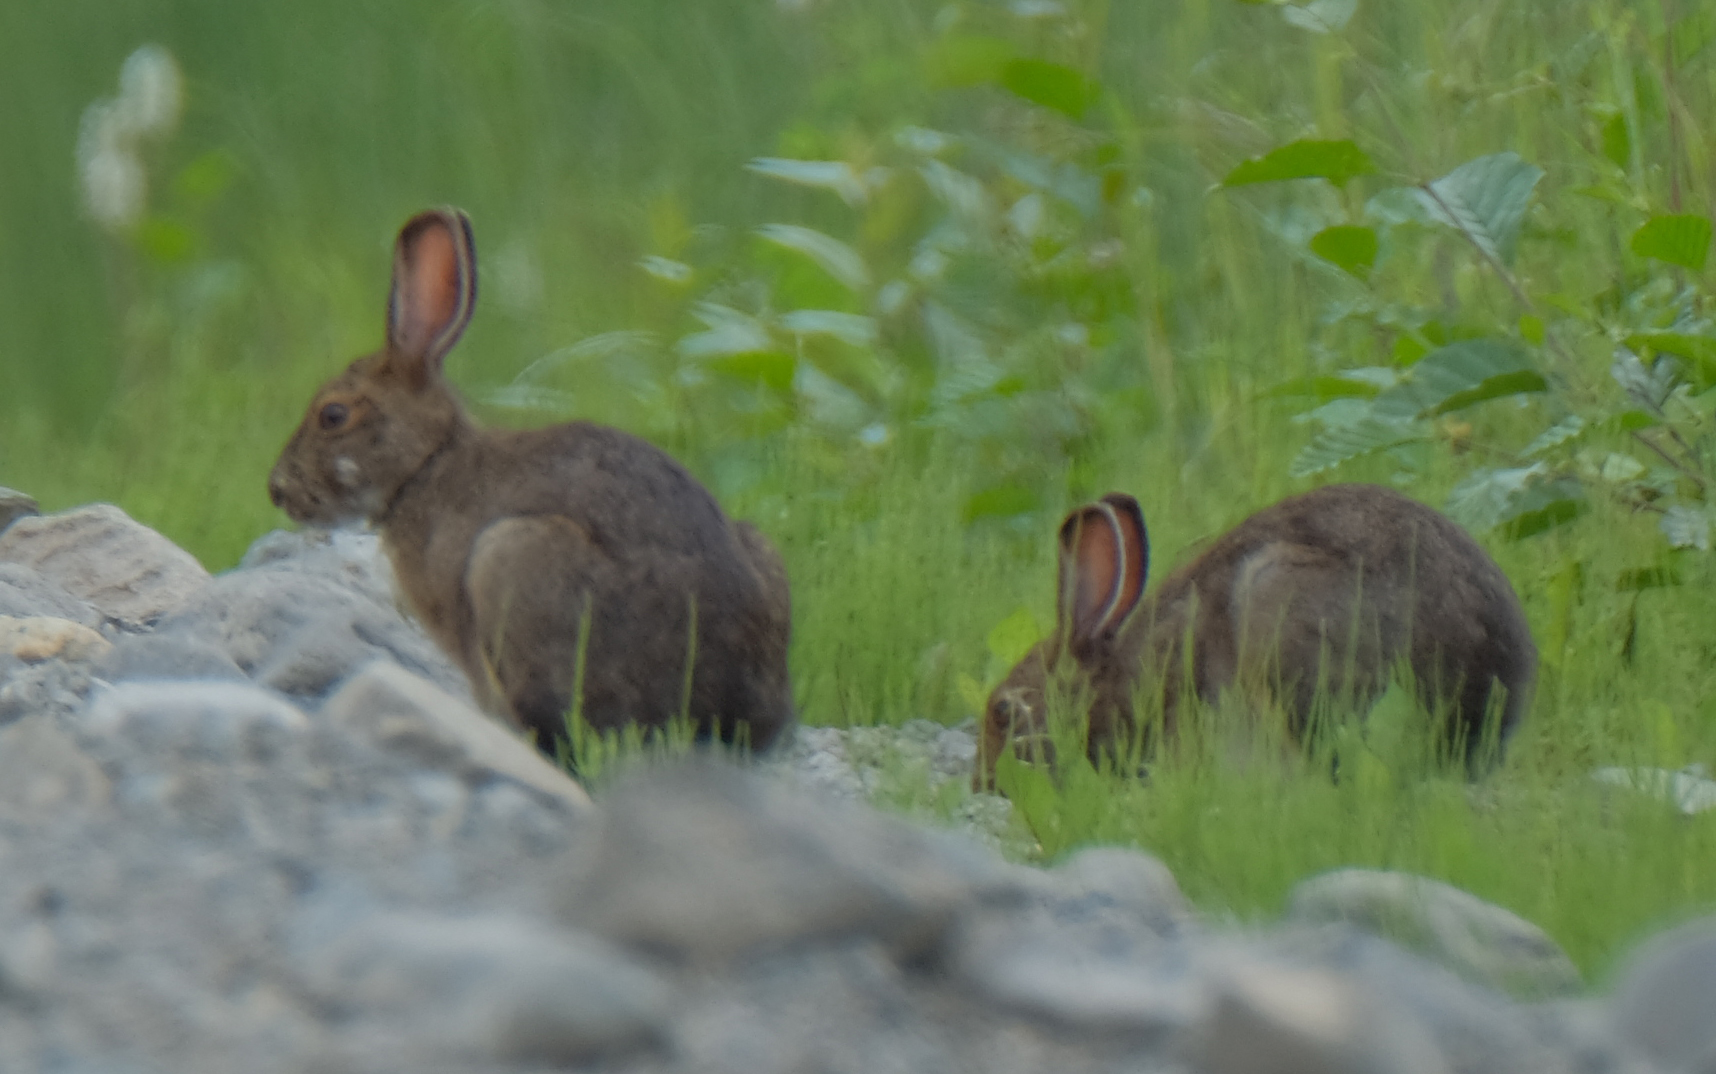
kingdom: Animalia
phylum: Chordata
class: Mammalia
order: Lagomorpha
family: Leporidae
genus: Lepus
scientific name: Lepus americanus
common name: Snowshoe hare
